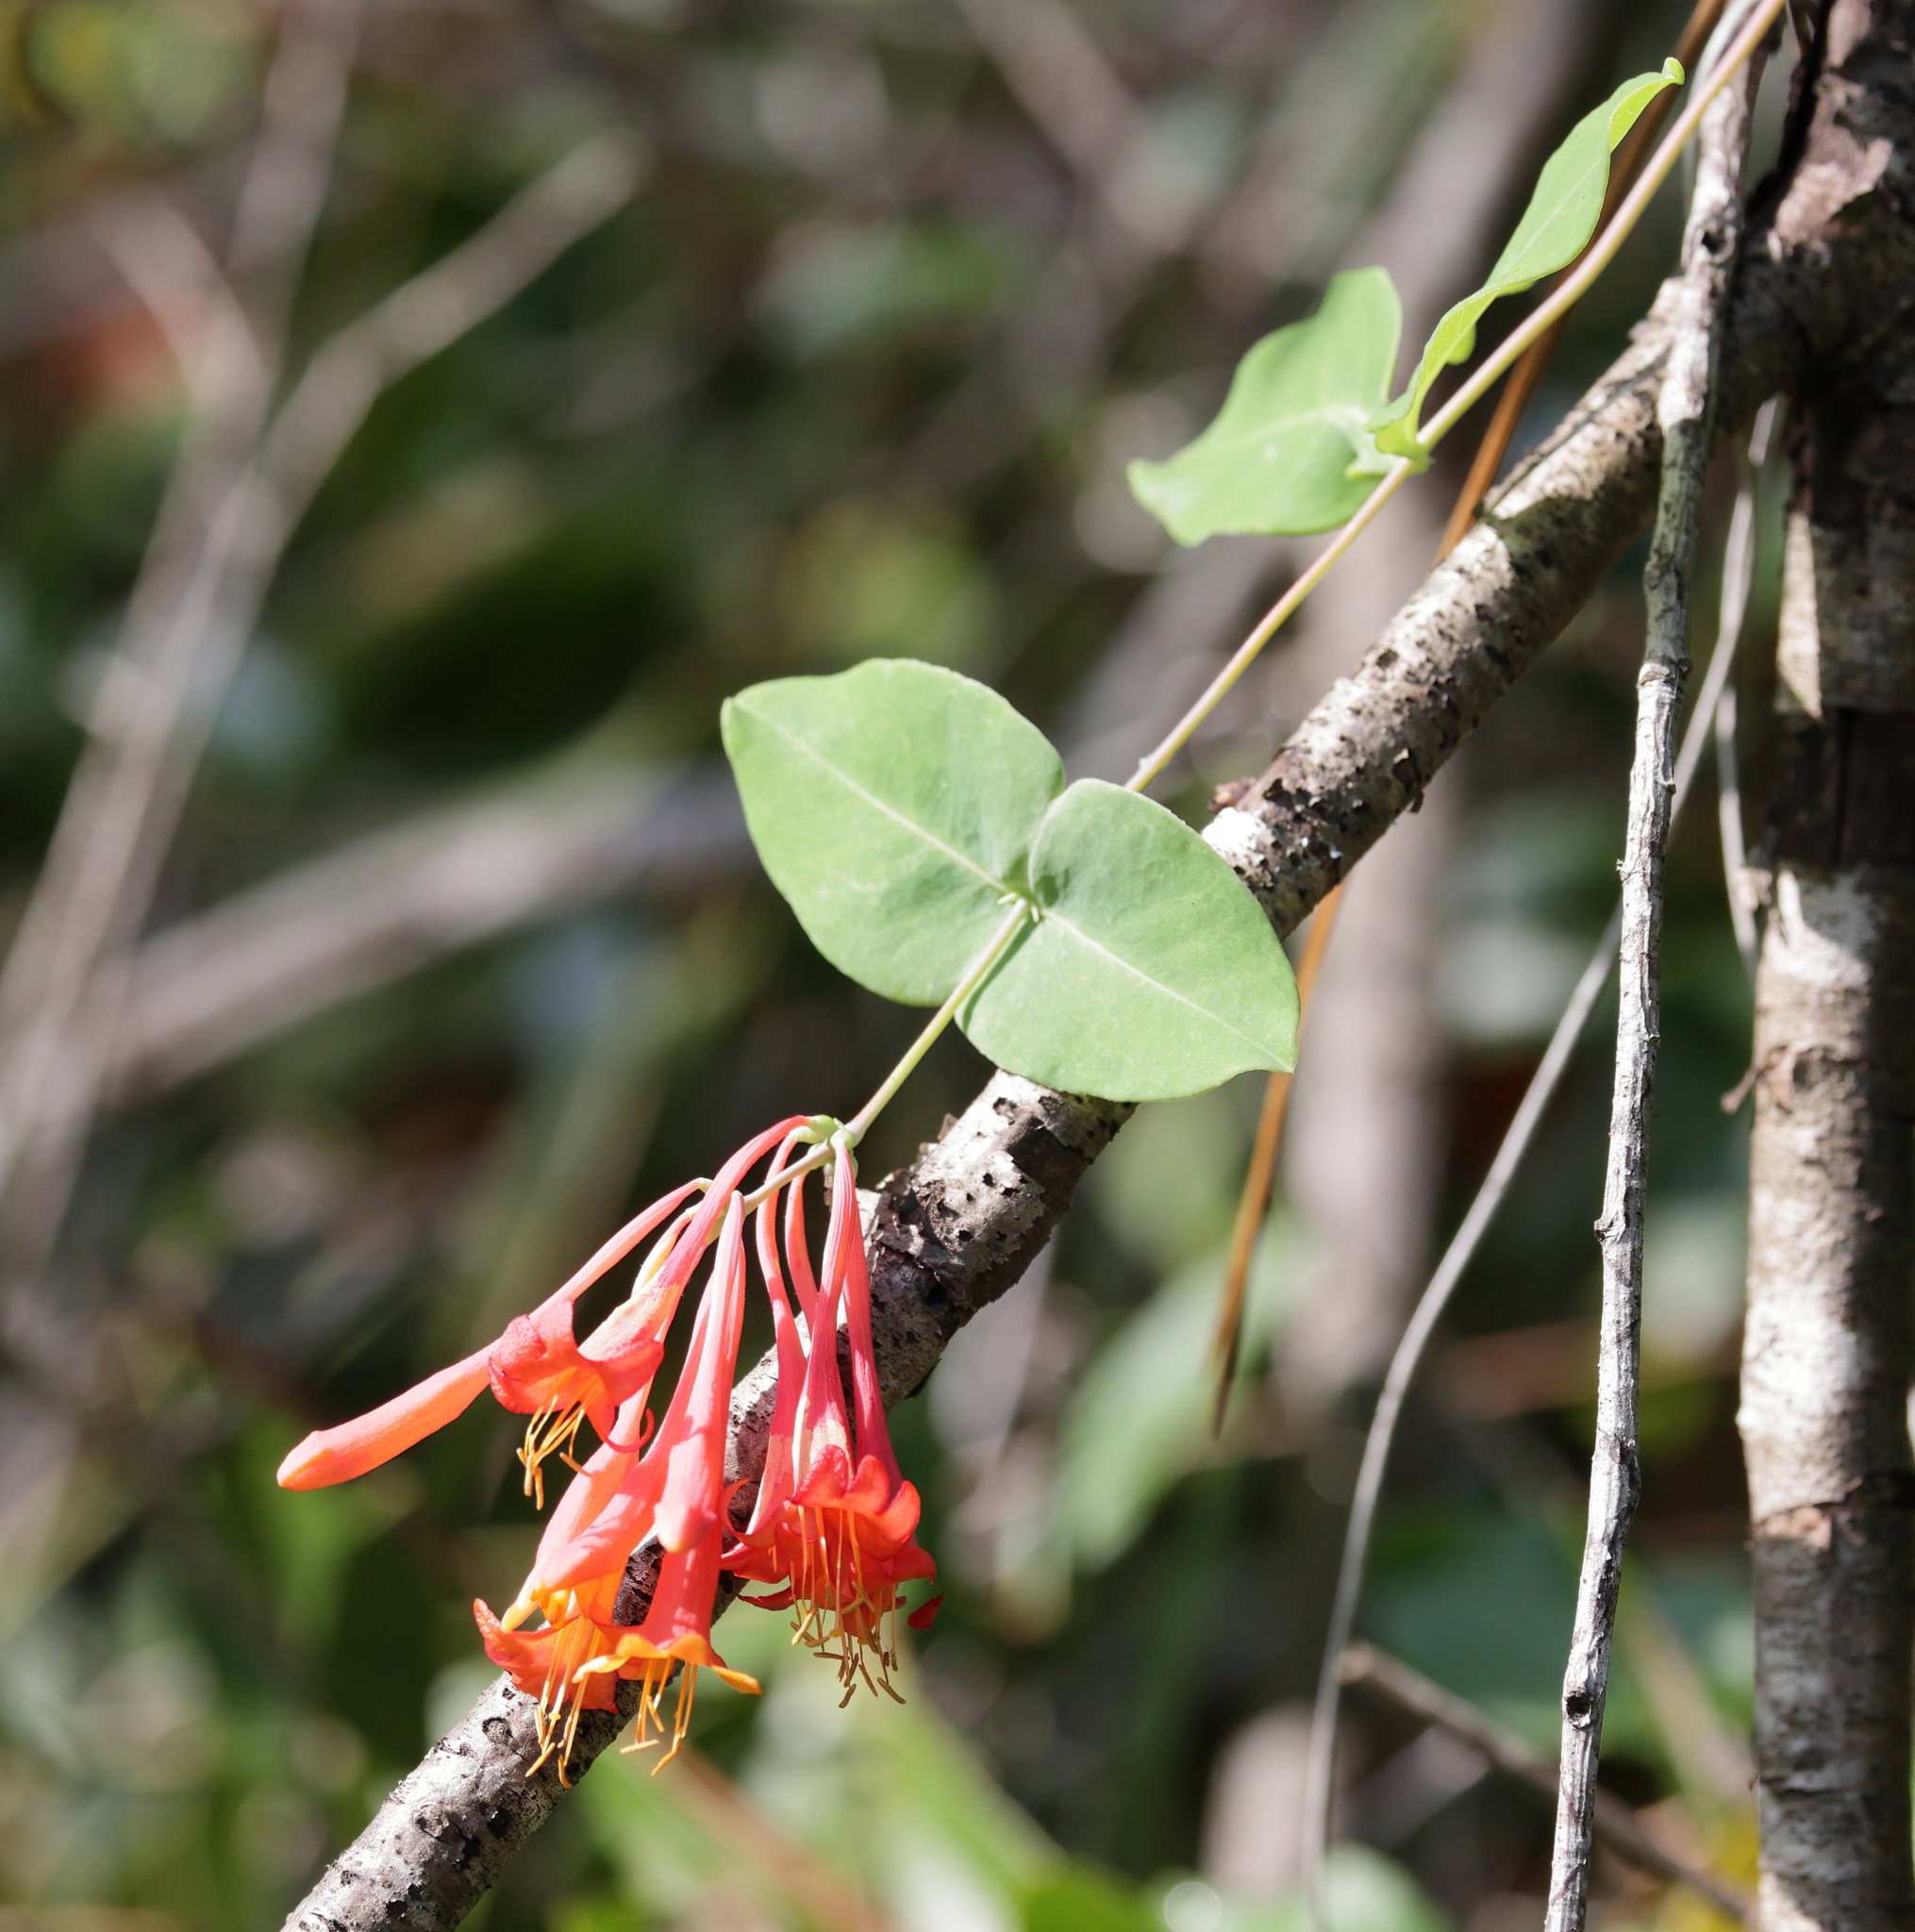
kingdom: Plantae
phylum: Tracheophyta
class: Magnoliopsida
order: Dipsacales
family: Caprifoliaceae
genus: Lonicera
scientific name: Lonicera sempervirens
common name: Coral honeysuckle
